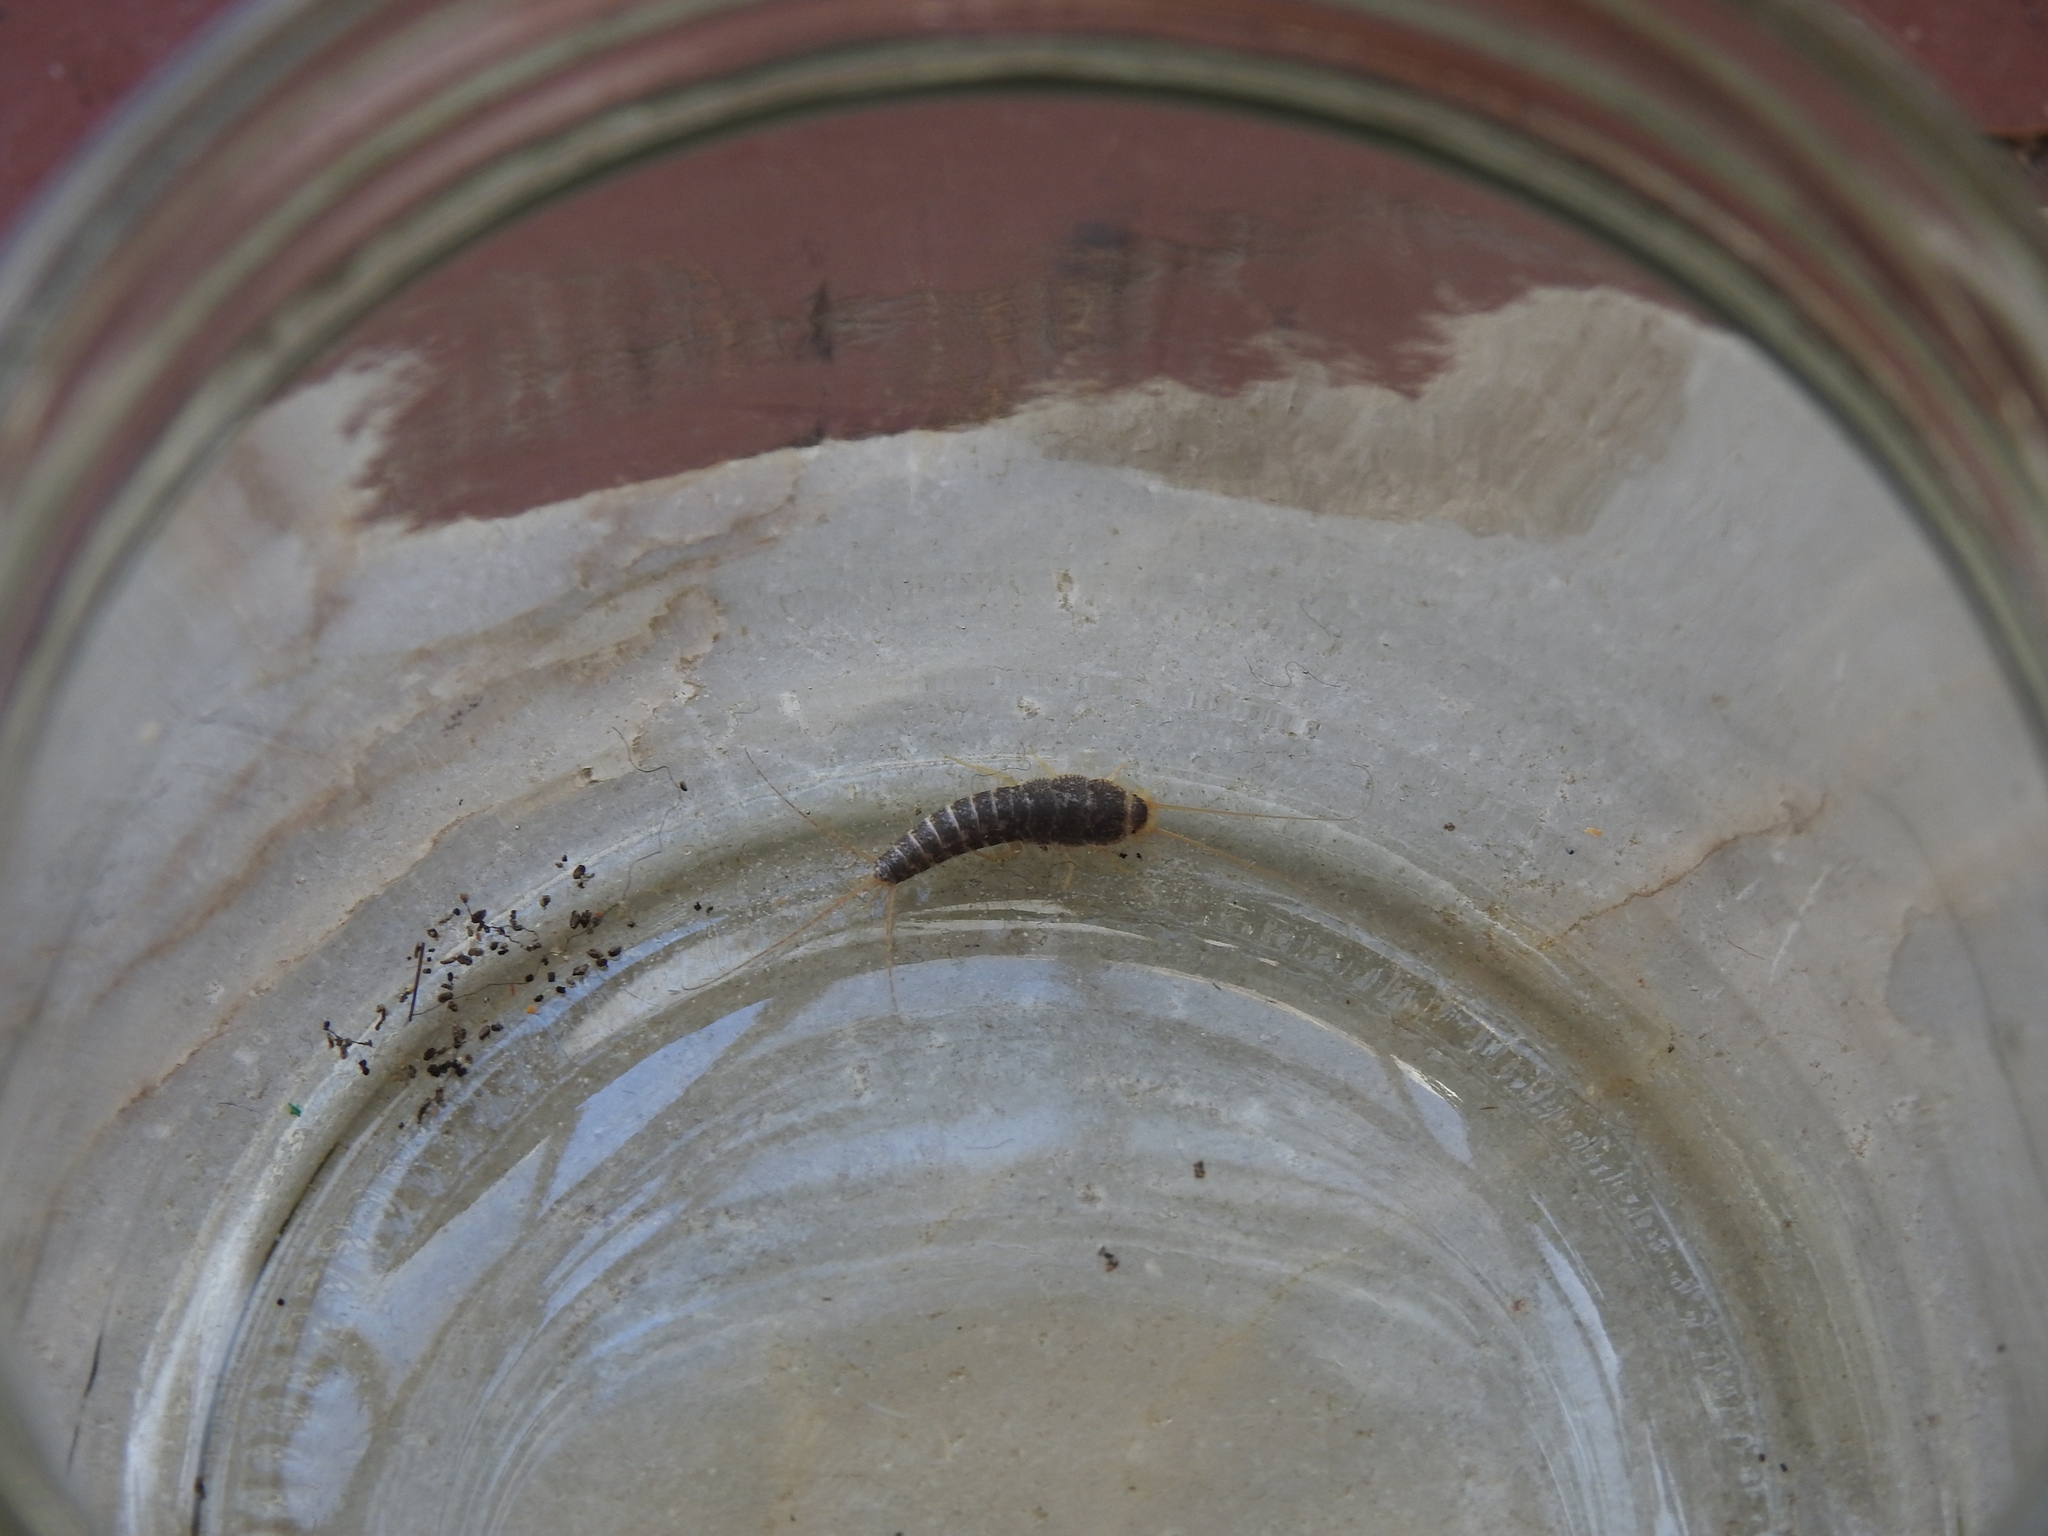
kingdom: Animalia
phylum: Arthropoda
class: Insecta
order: Zygentoma
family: Lepismatidae
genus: Ctenolepisma
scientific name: Ctenolepisma longicaudatum
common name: Silverfish
